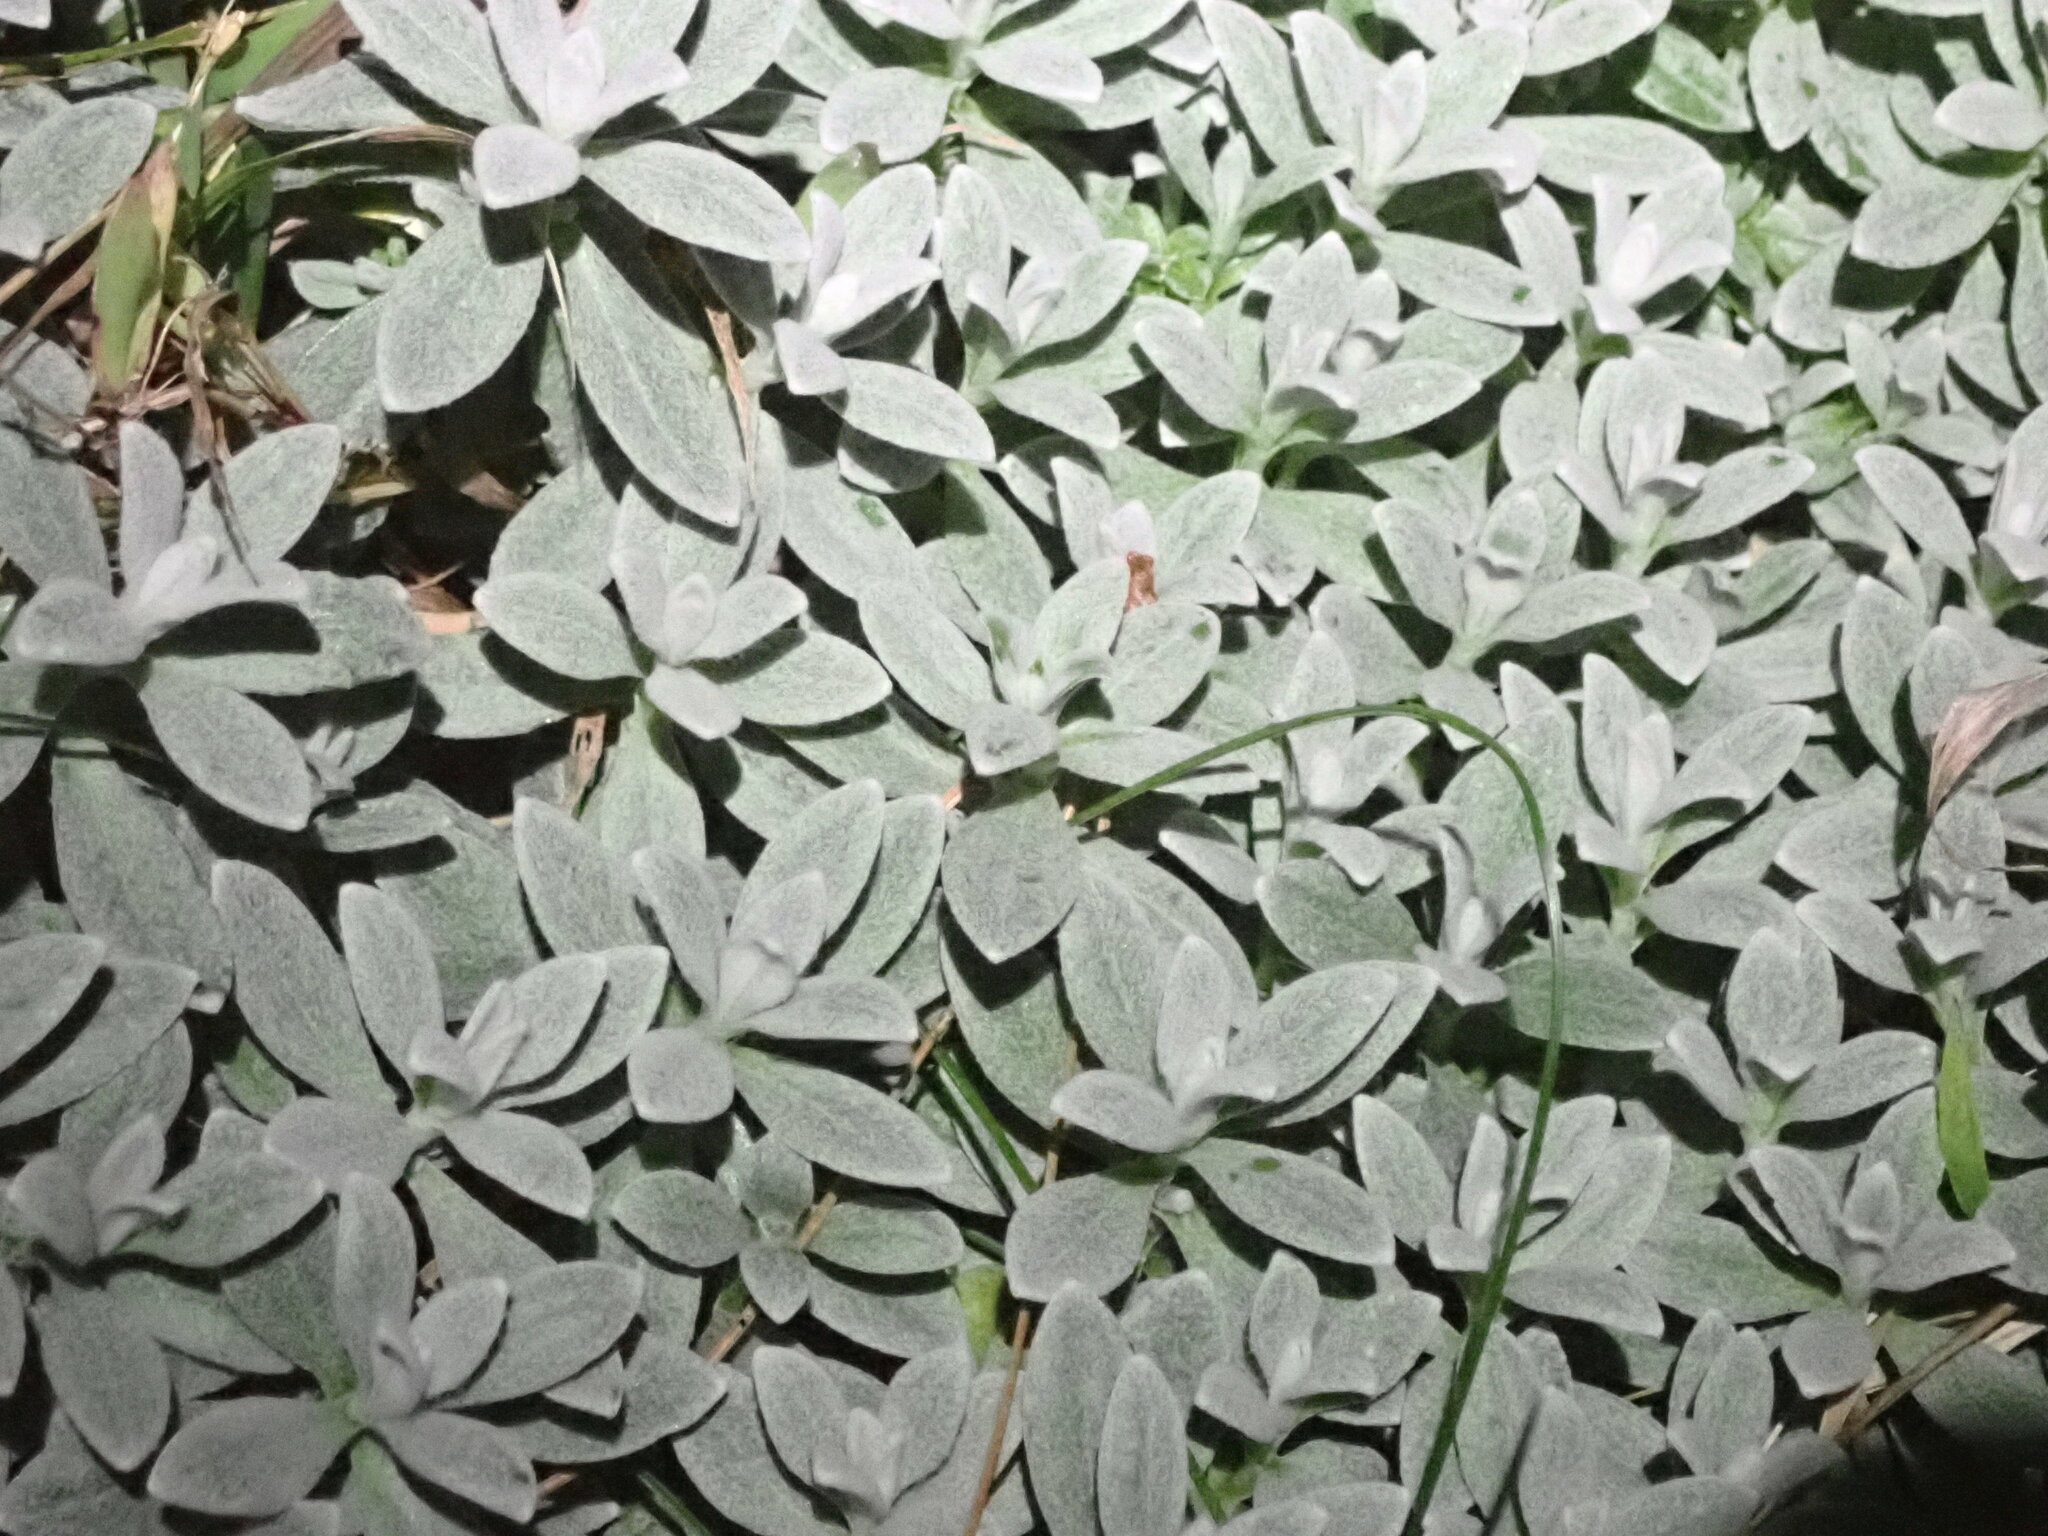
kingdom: Plantae
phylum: Tracheophyta
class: Magnoliopsida
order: Caryophyllales
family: Caryophyllaceae
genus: Cerastium
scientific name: Cerastium tomentosum
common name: Snow-in-summer
